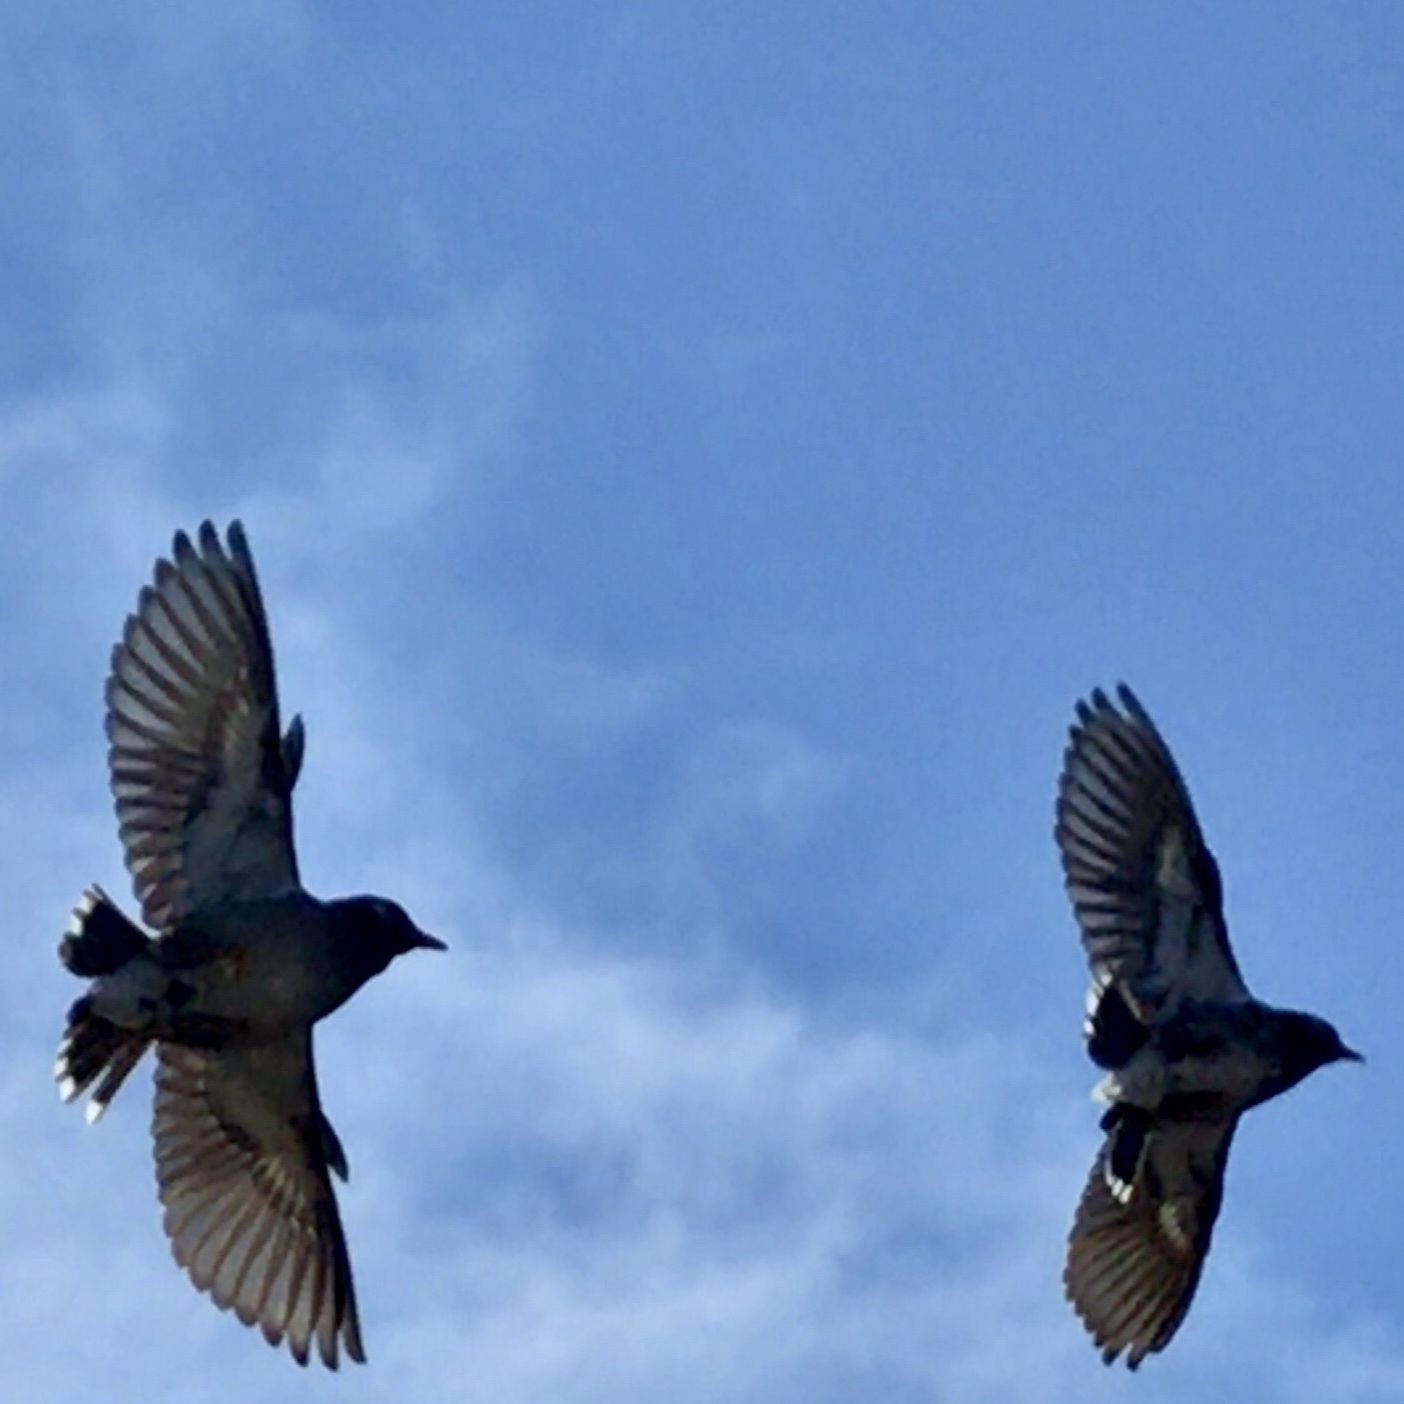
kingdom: Animalia
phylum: Chordata
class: Aves
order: Passeriformes
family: Sturnidae
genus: Spodiopsar
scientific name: Spodiopsar cineraceus
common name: White-cheeked starling
